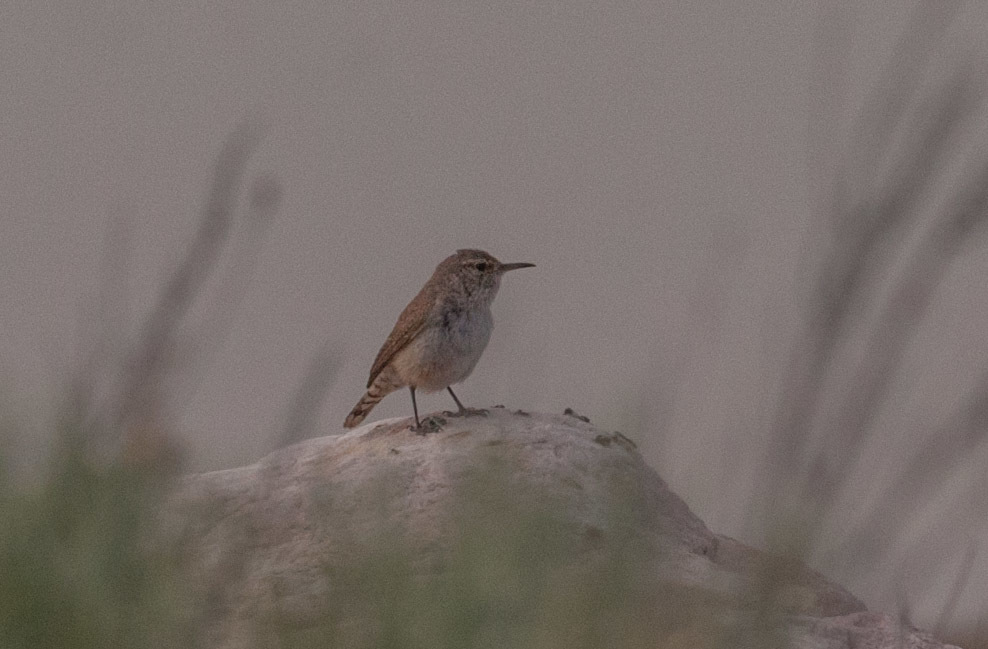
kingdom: Animalia
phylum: Chordata
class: Aves
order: Passeriformes
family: Troglodytidae
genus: Salpinctes
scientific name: Salpinctes obsoletus
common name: Rock wren
